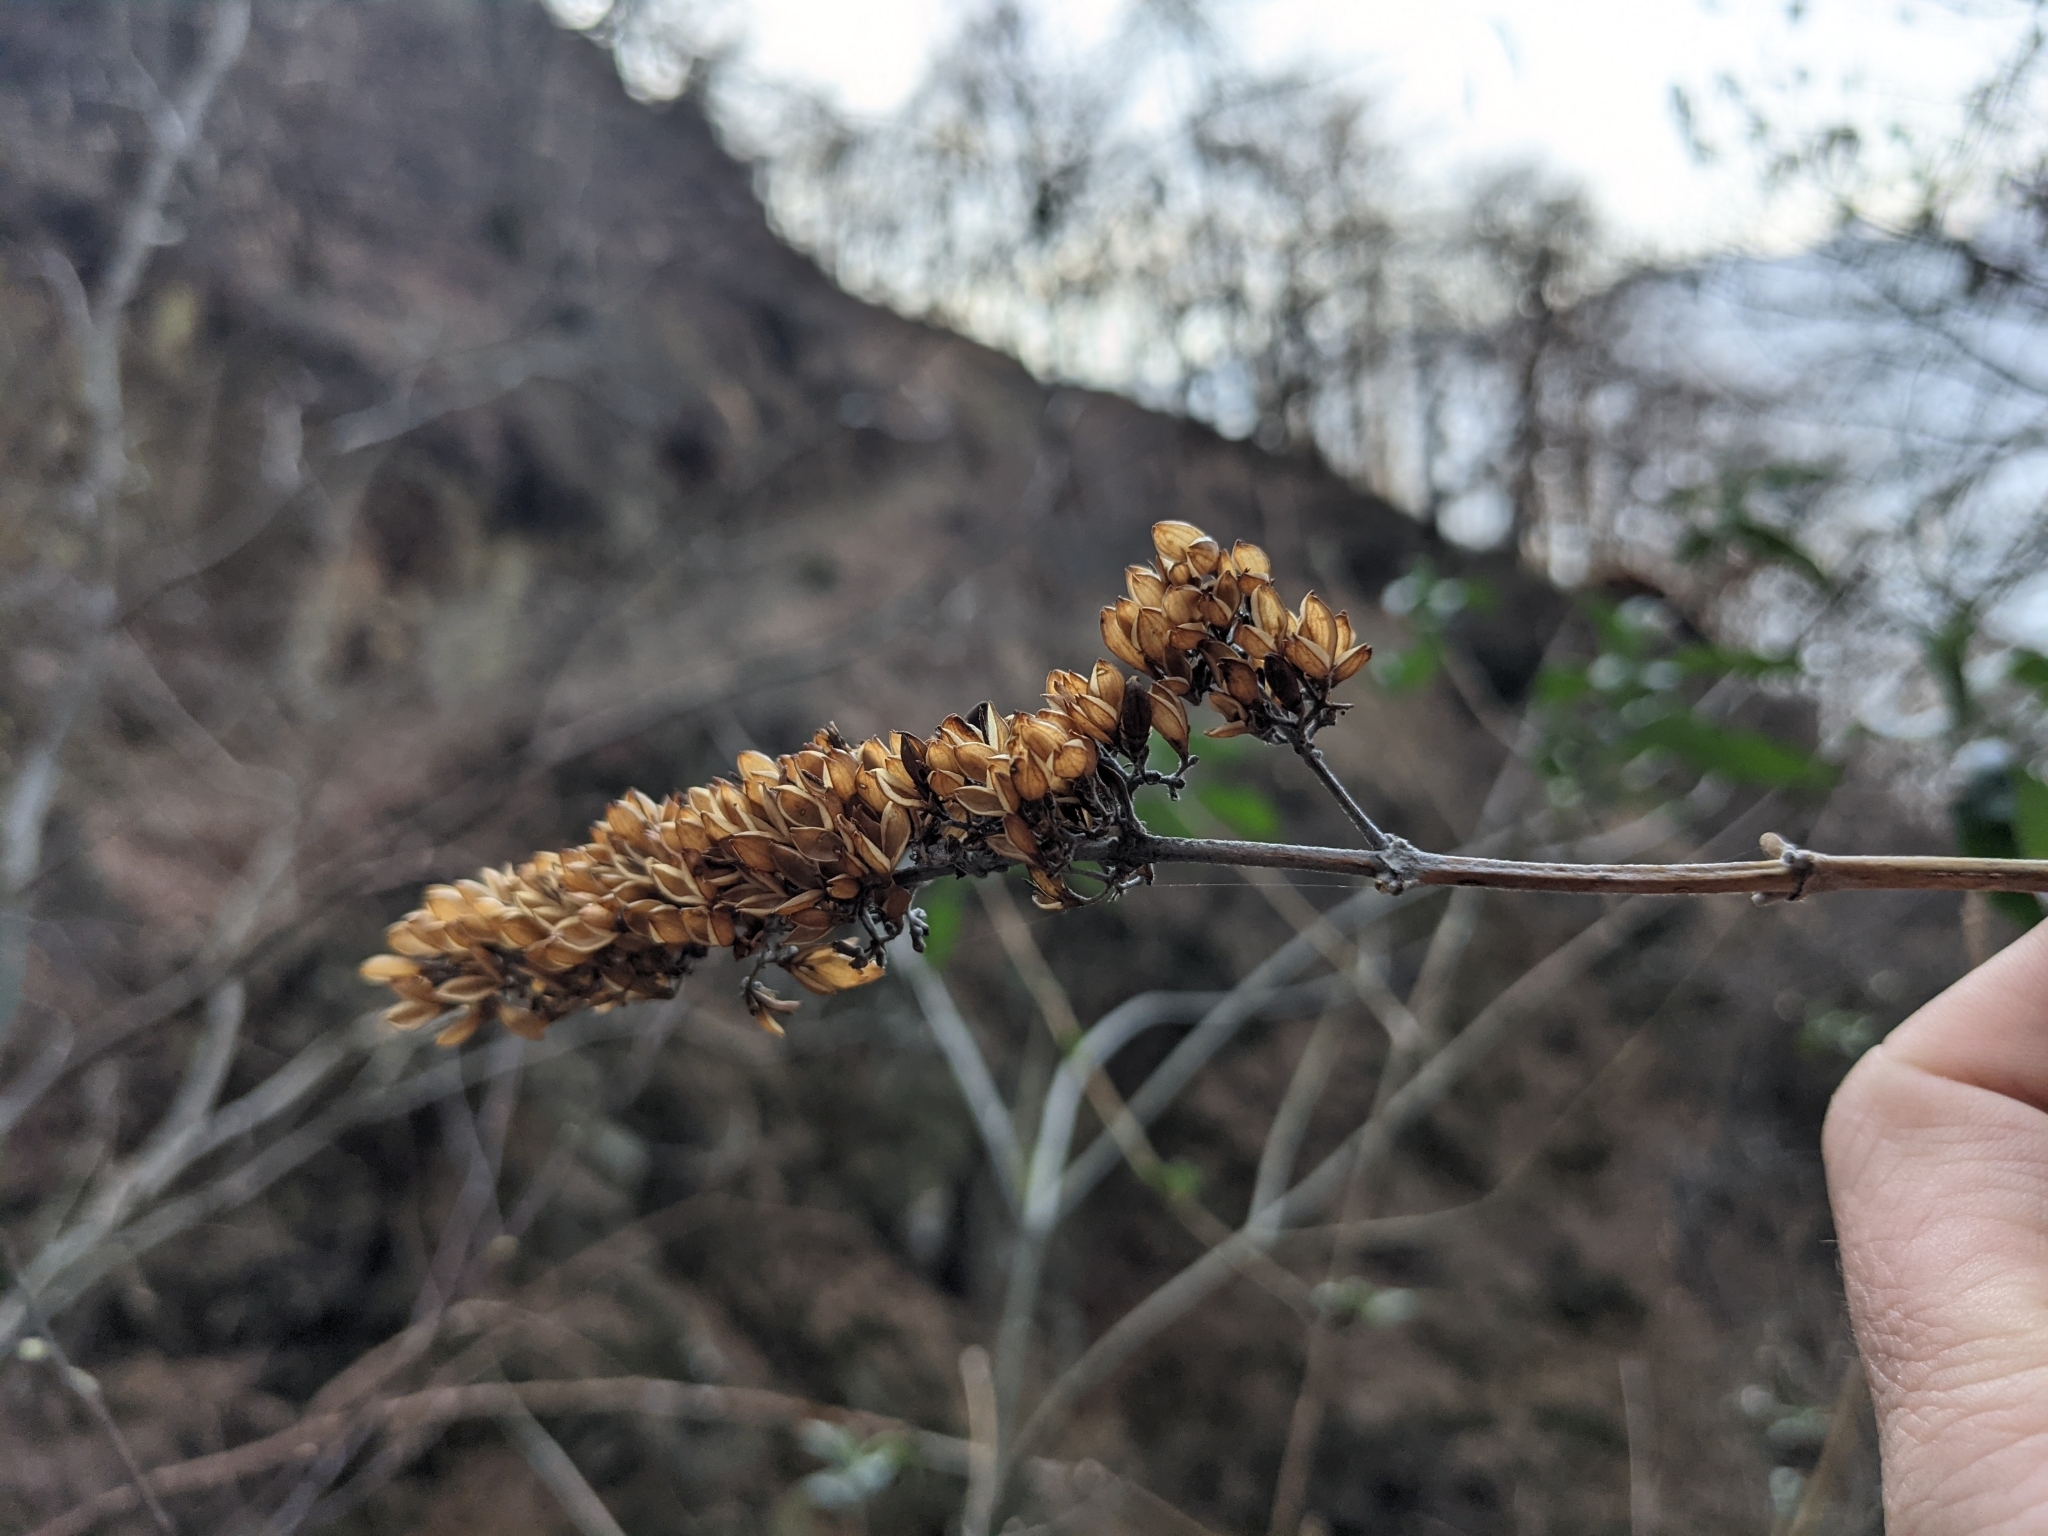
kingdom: Plantae
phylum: Tracheophyta
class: Magnoliopsida
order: Lamiales
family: Scrophulariaceae
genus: Buddleja
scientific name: Buddleja davidii
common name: Butterfly-bush
